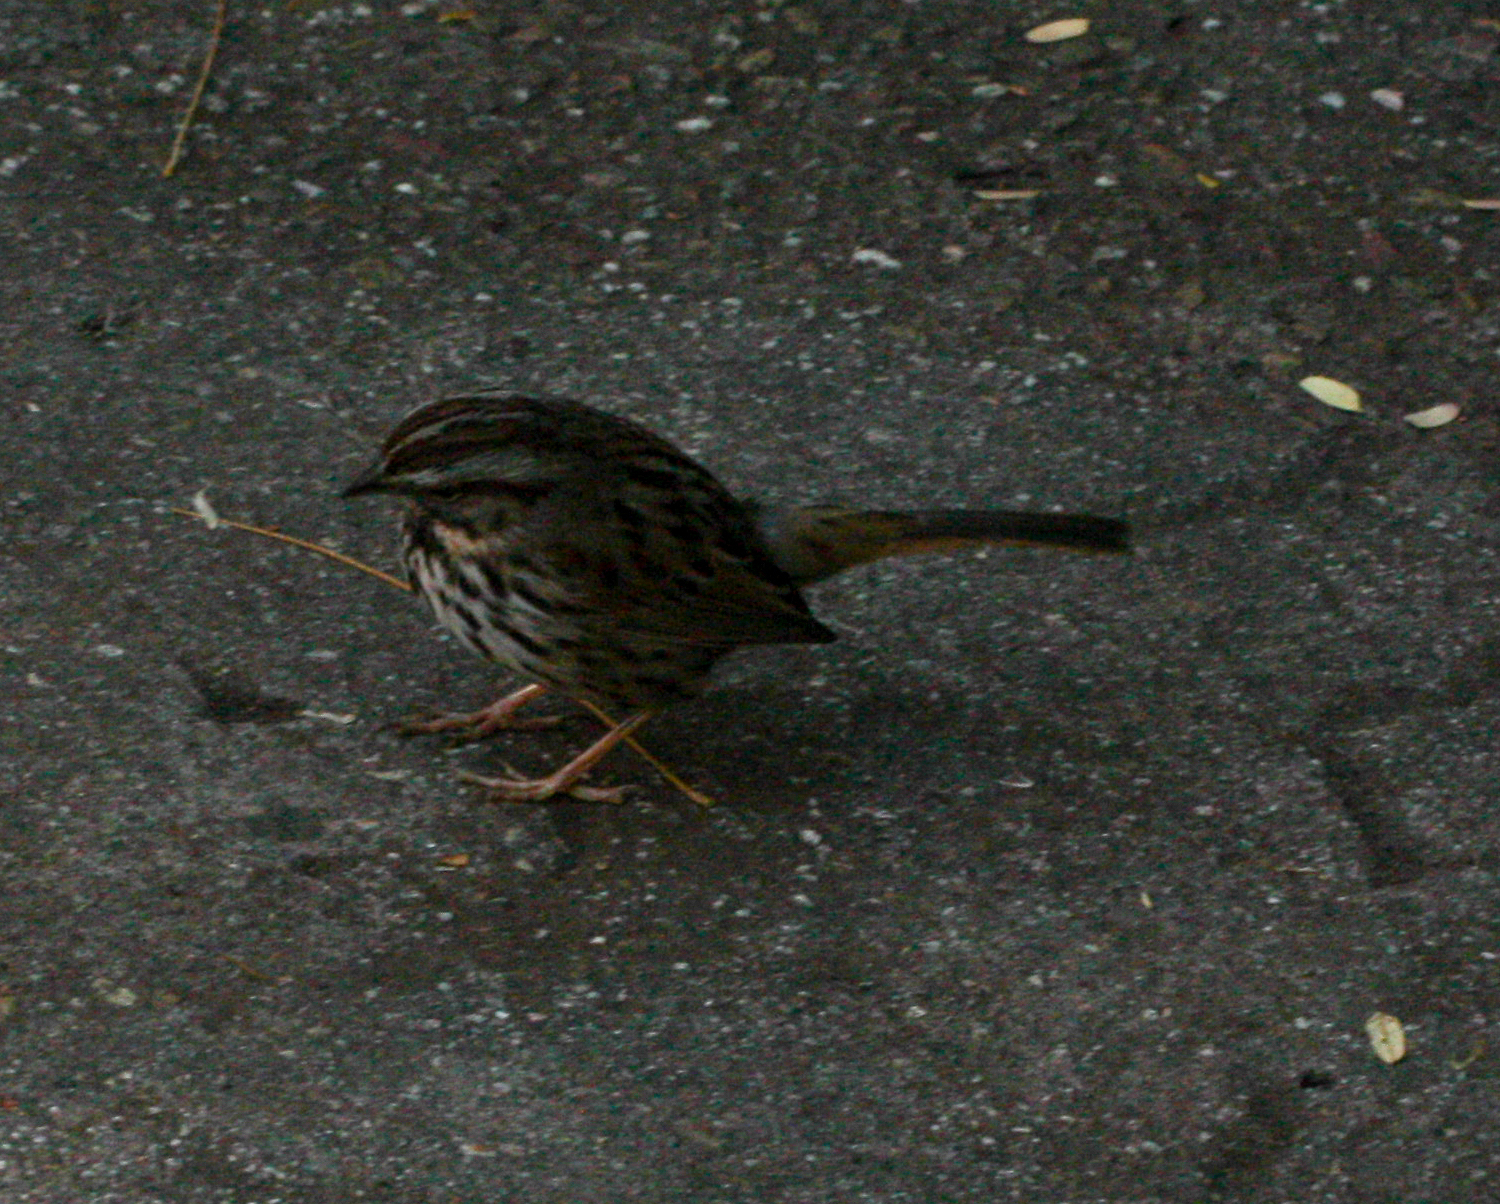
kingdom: Animalia
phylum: Chordata
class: Aves
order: Passeriformes
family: Passerellidae
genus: Melospiza
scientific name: Melospiza melodia
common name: Song sparrow
